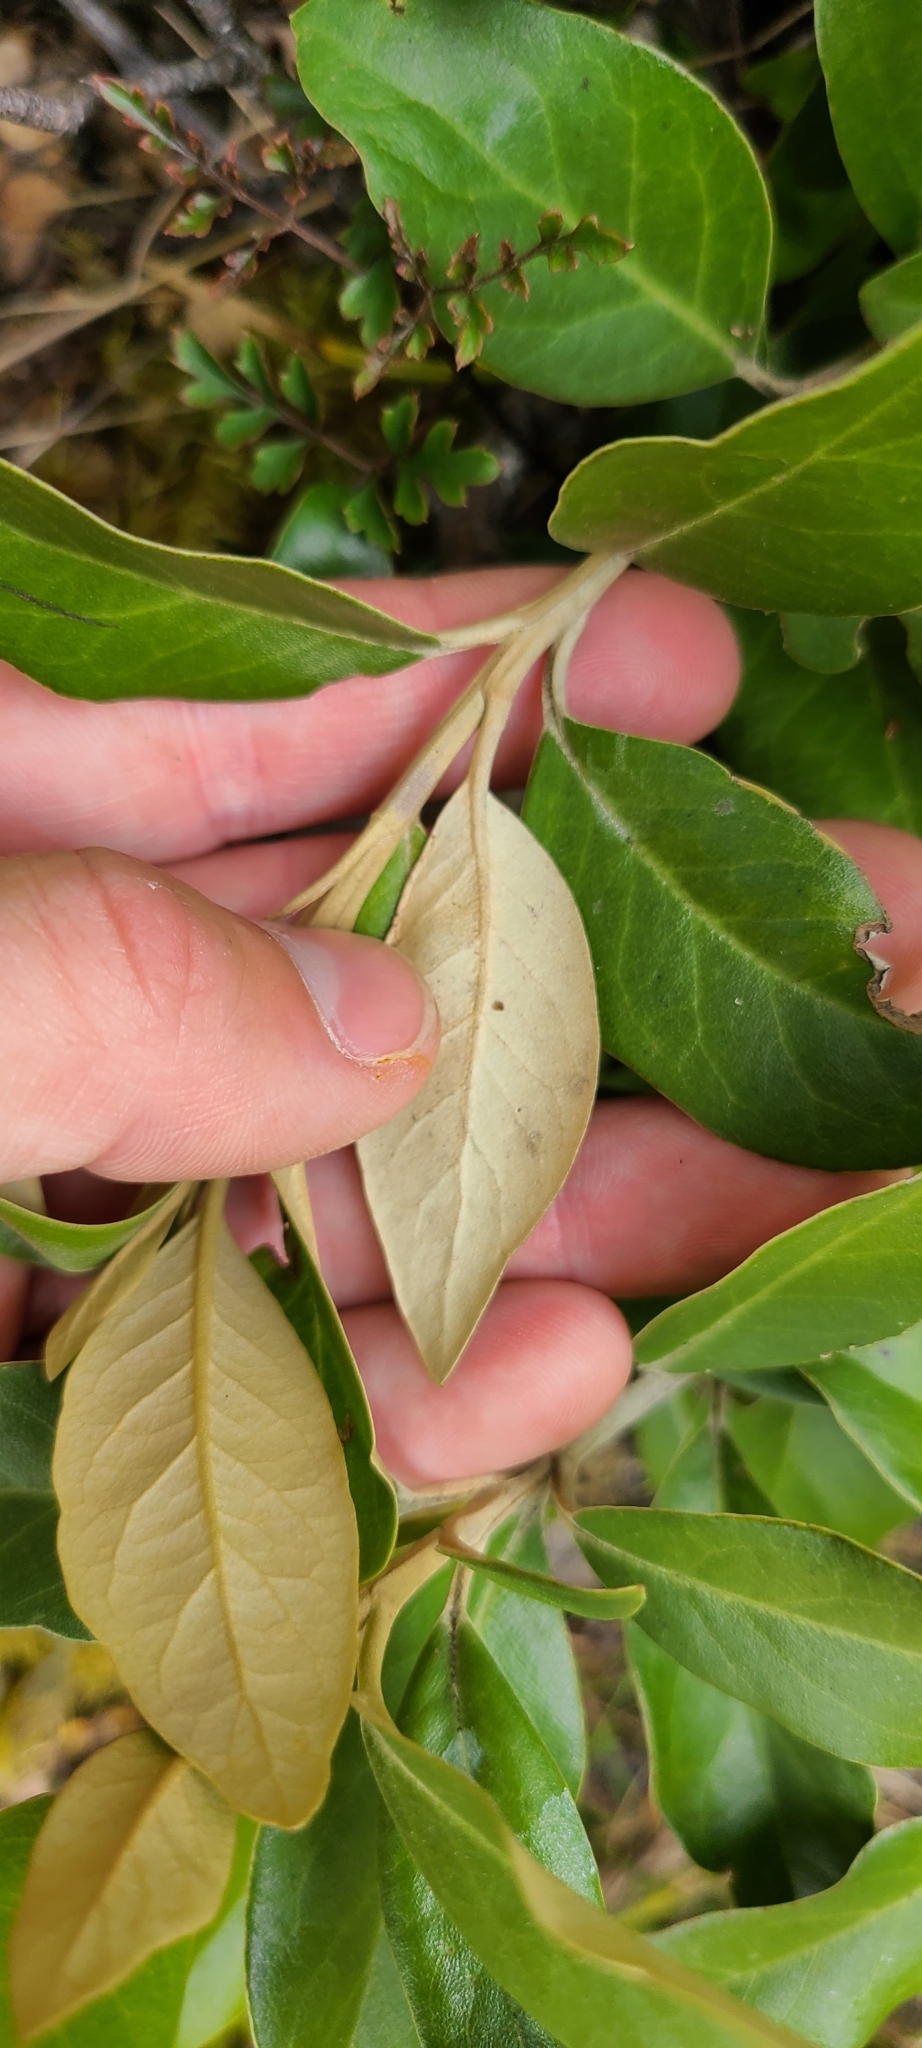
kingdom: Plantae
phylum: Tracheophyta
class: Magnoliopsida
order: Asterales
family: Asteraceae
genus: Olearia
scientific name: Olearia avicenniifolia
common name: Mangrove-leaf daisybush
